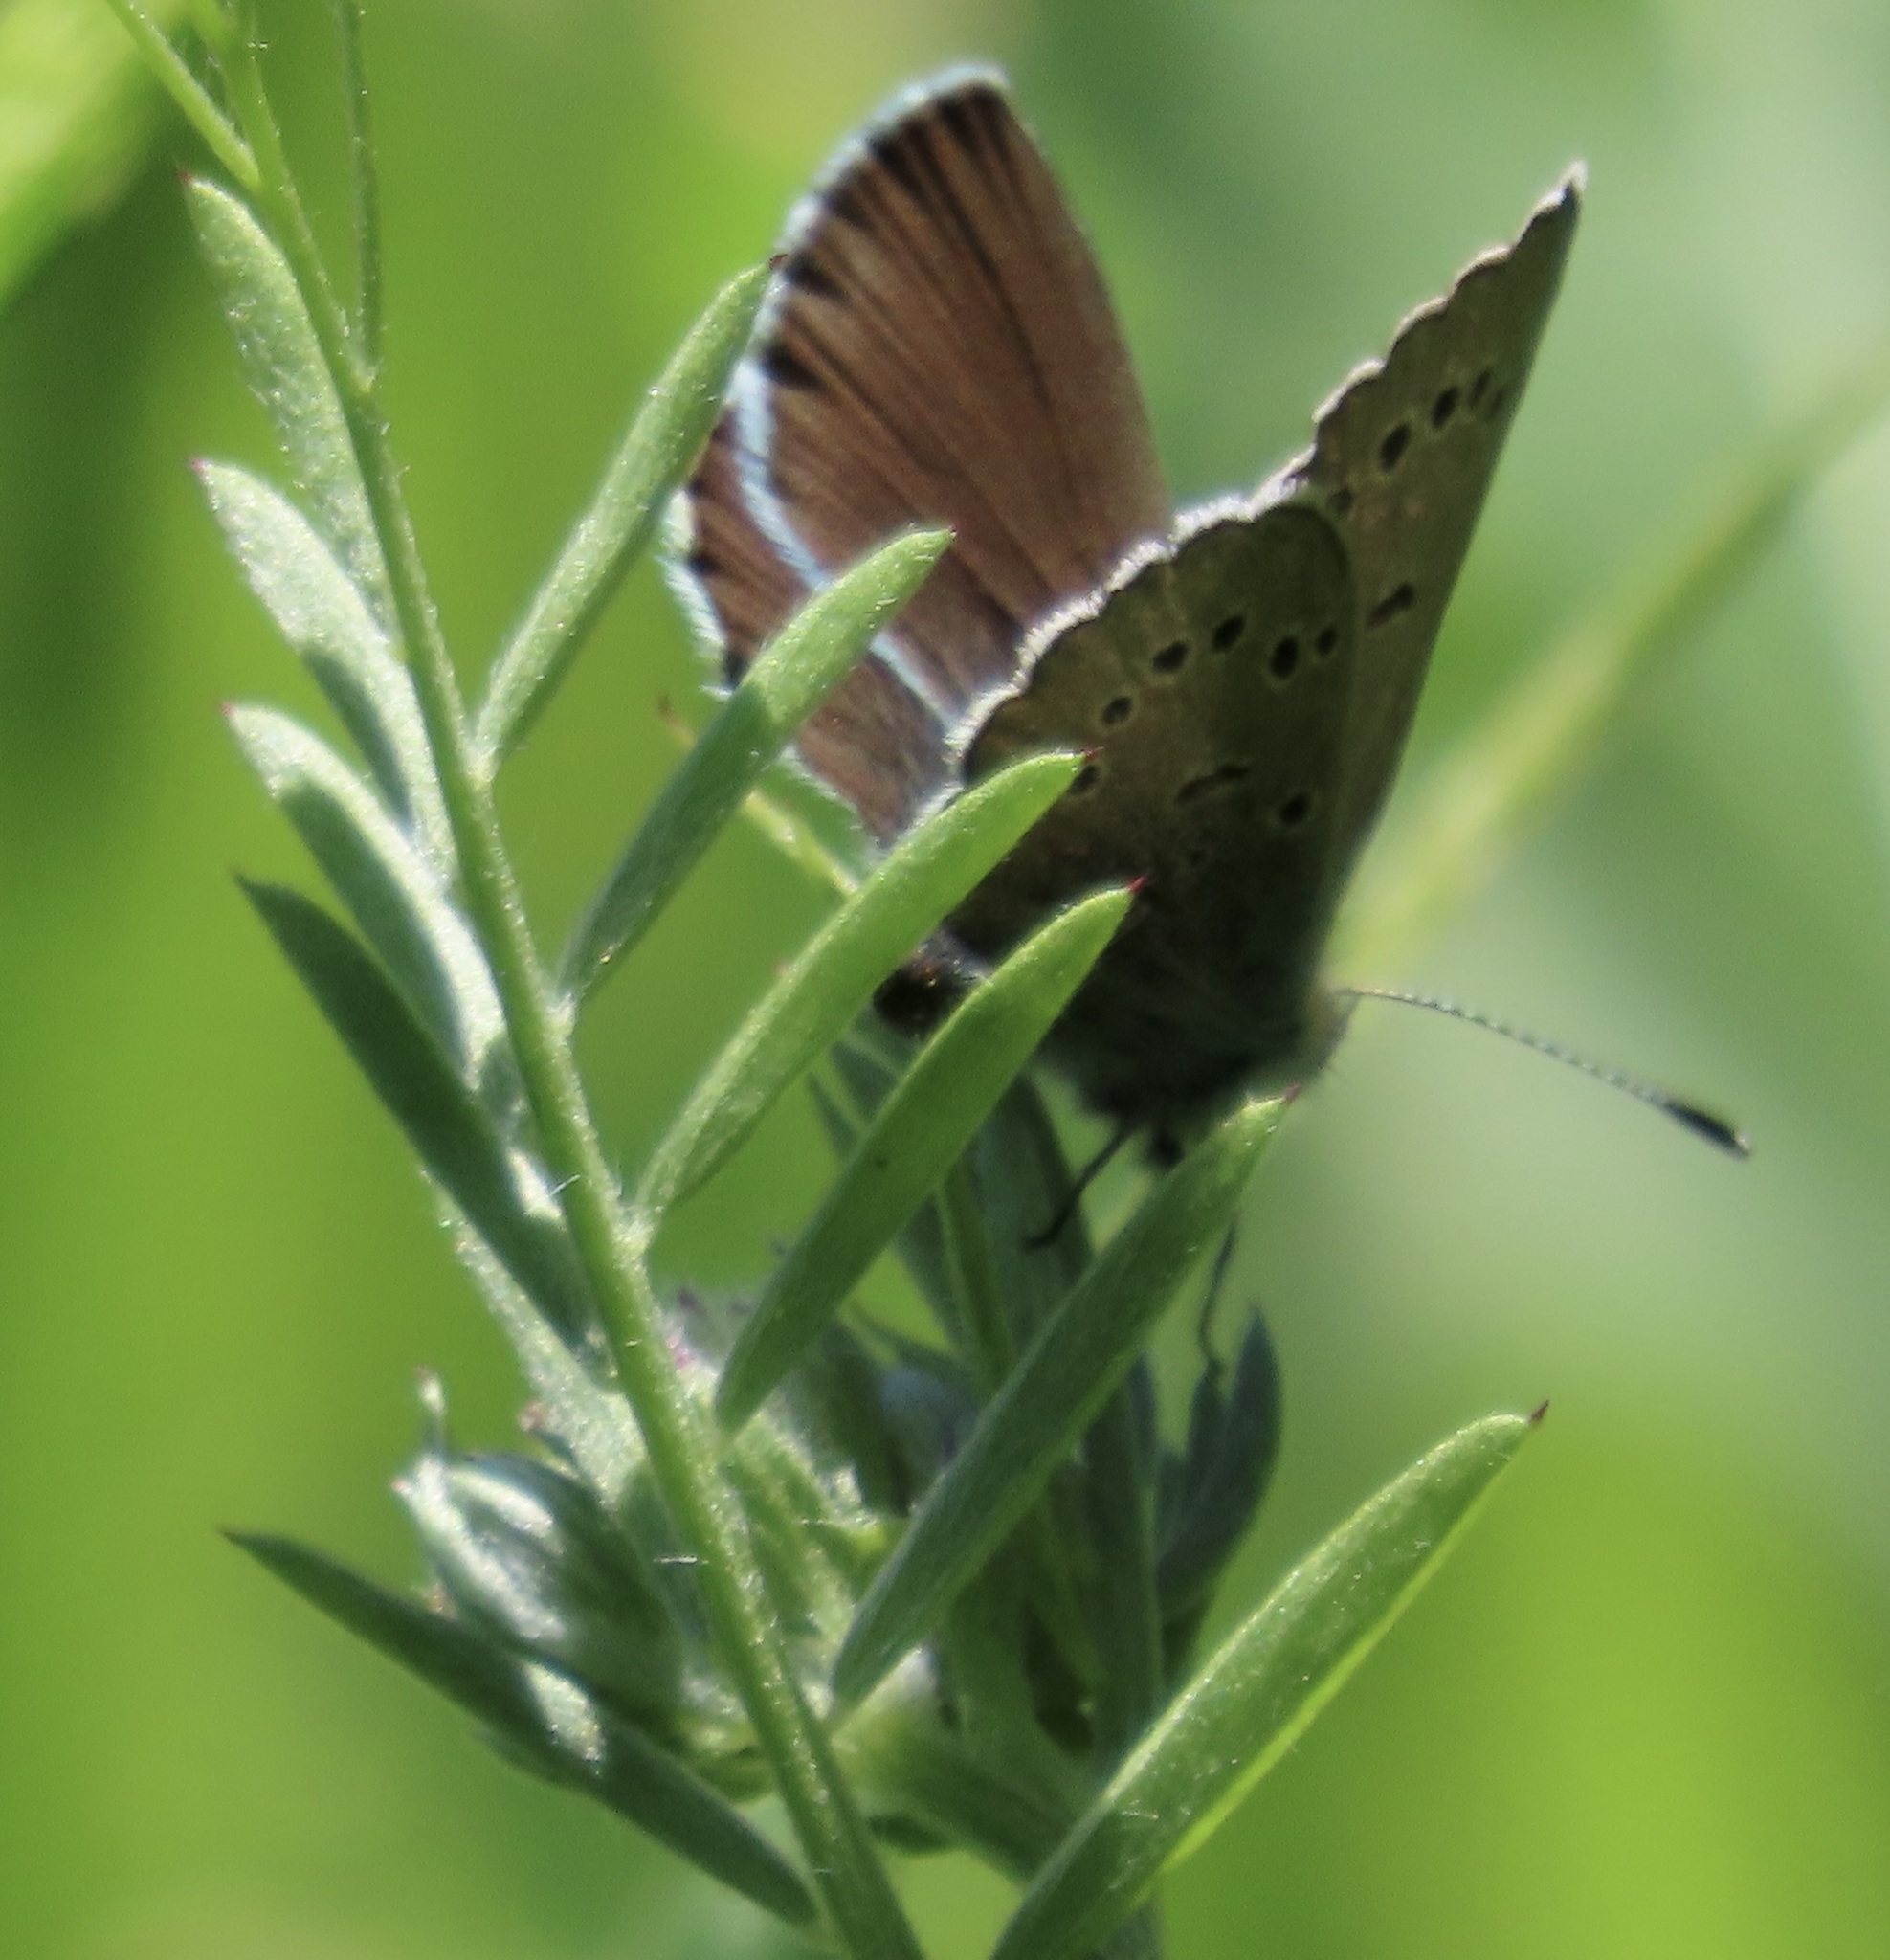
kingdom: Animalia
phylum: Arthropoda
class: Insecta
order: Lepidoptera
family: Lycaenidae
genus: Glaucopsyche
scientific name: Glaucopsyche lygdamus
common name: Silvery blue
